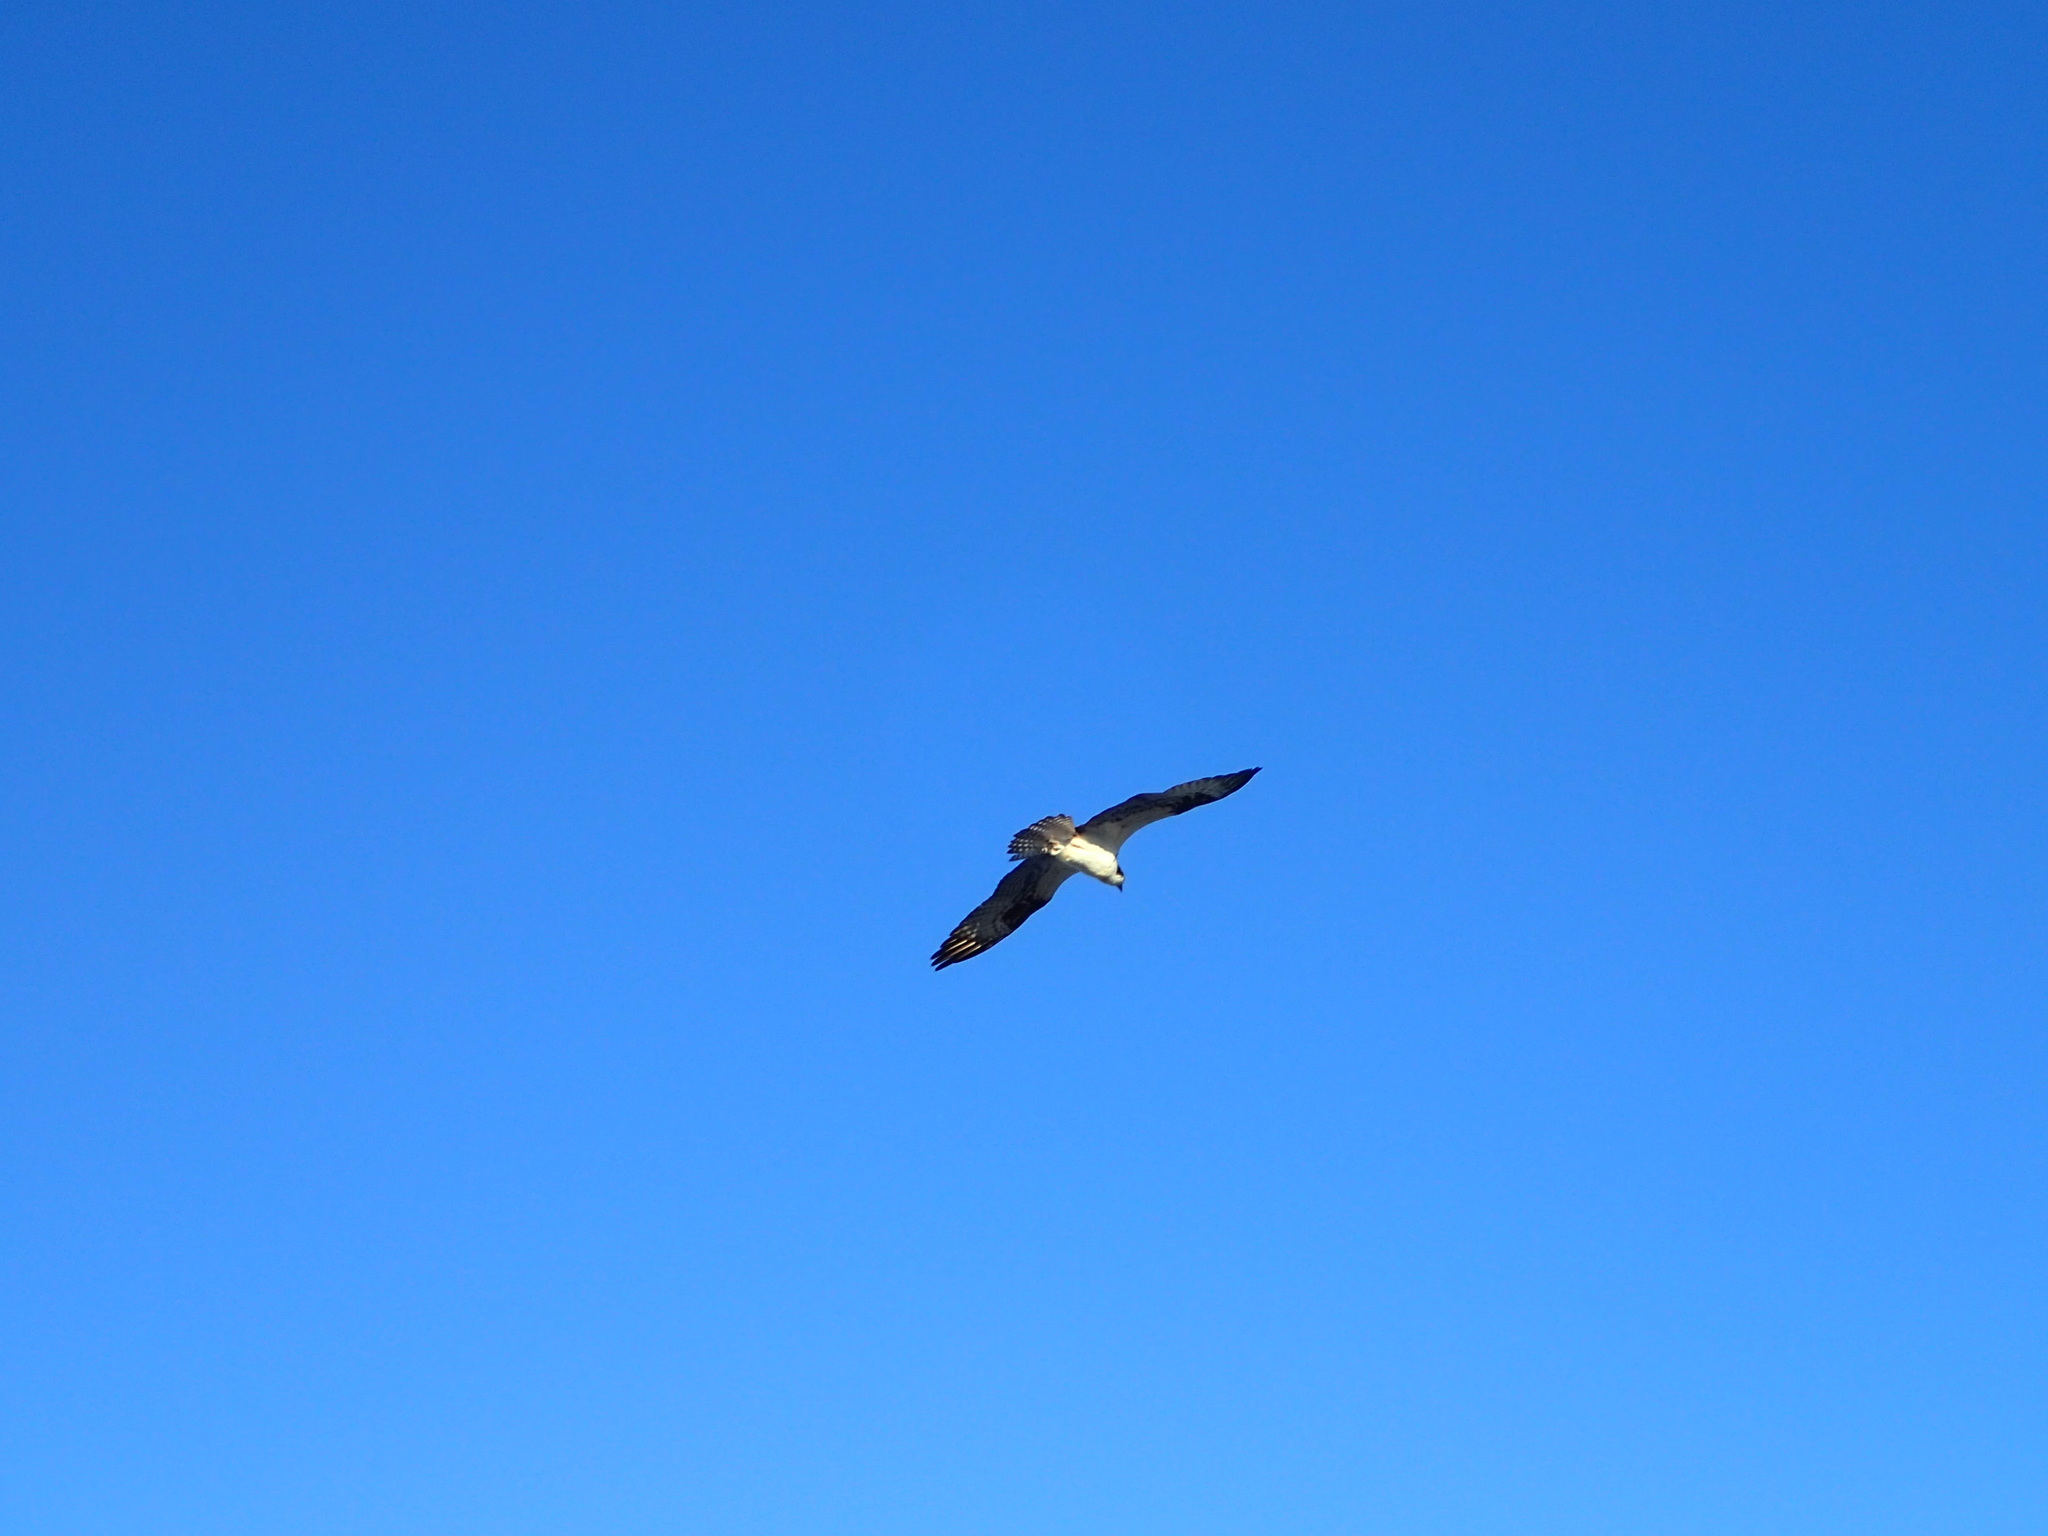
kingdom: Animalia
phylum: Chordata
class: Aves
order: Accipitriformes
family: Pandionidae
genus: Pandion
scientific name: Pandion haliaetus
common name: Osprey
